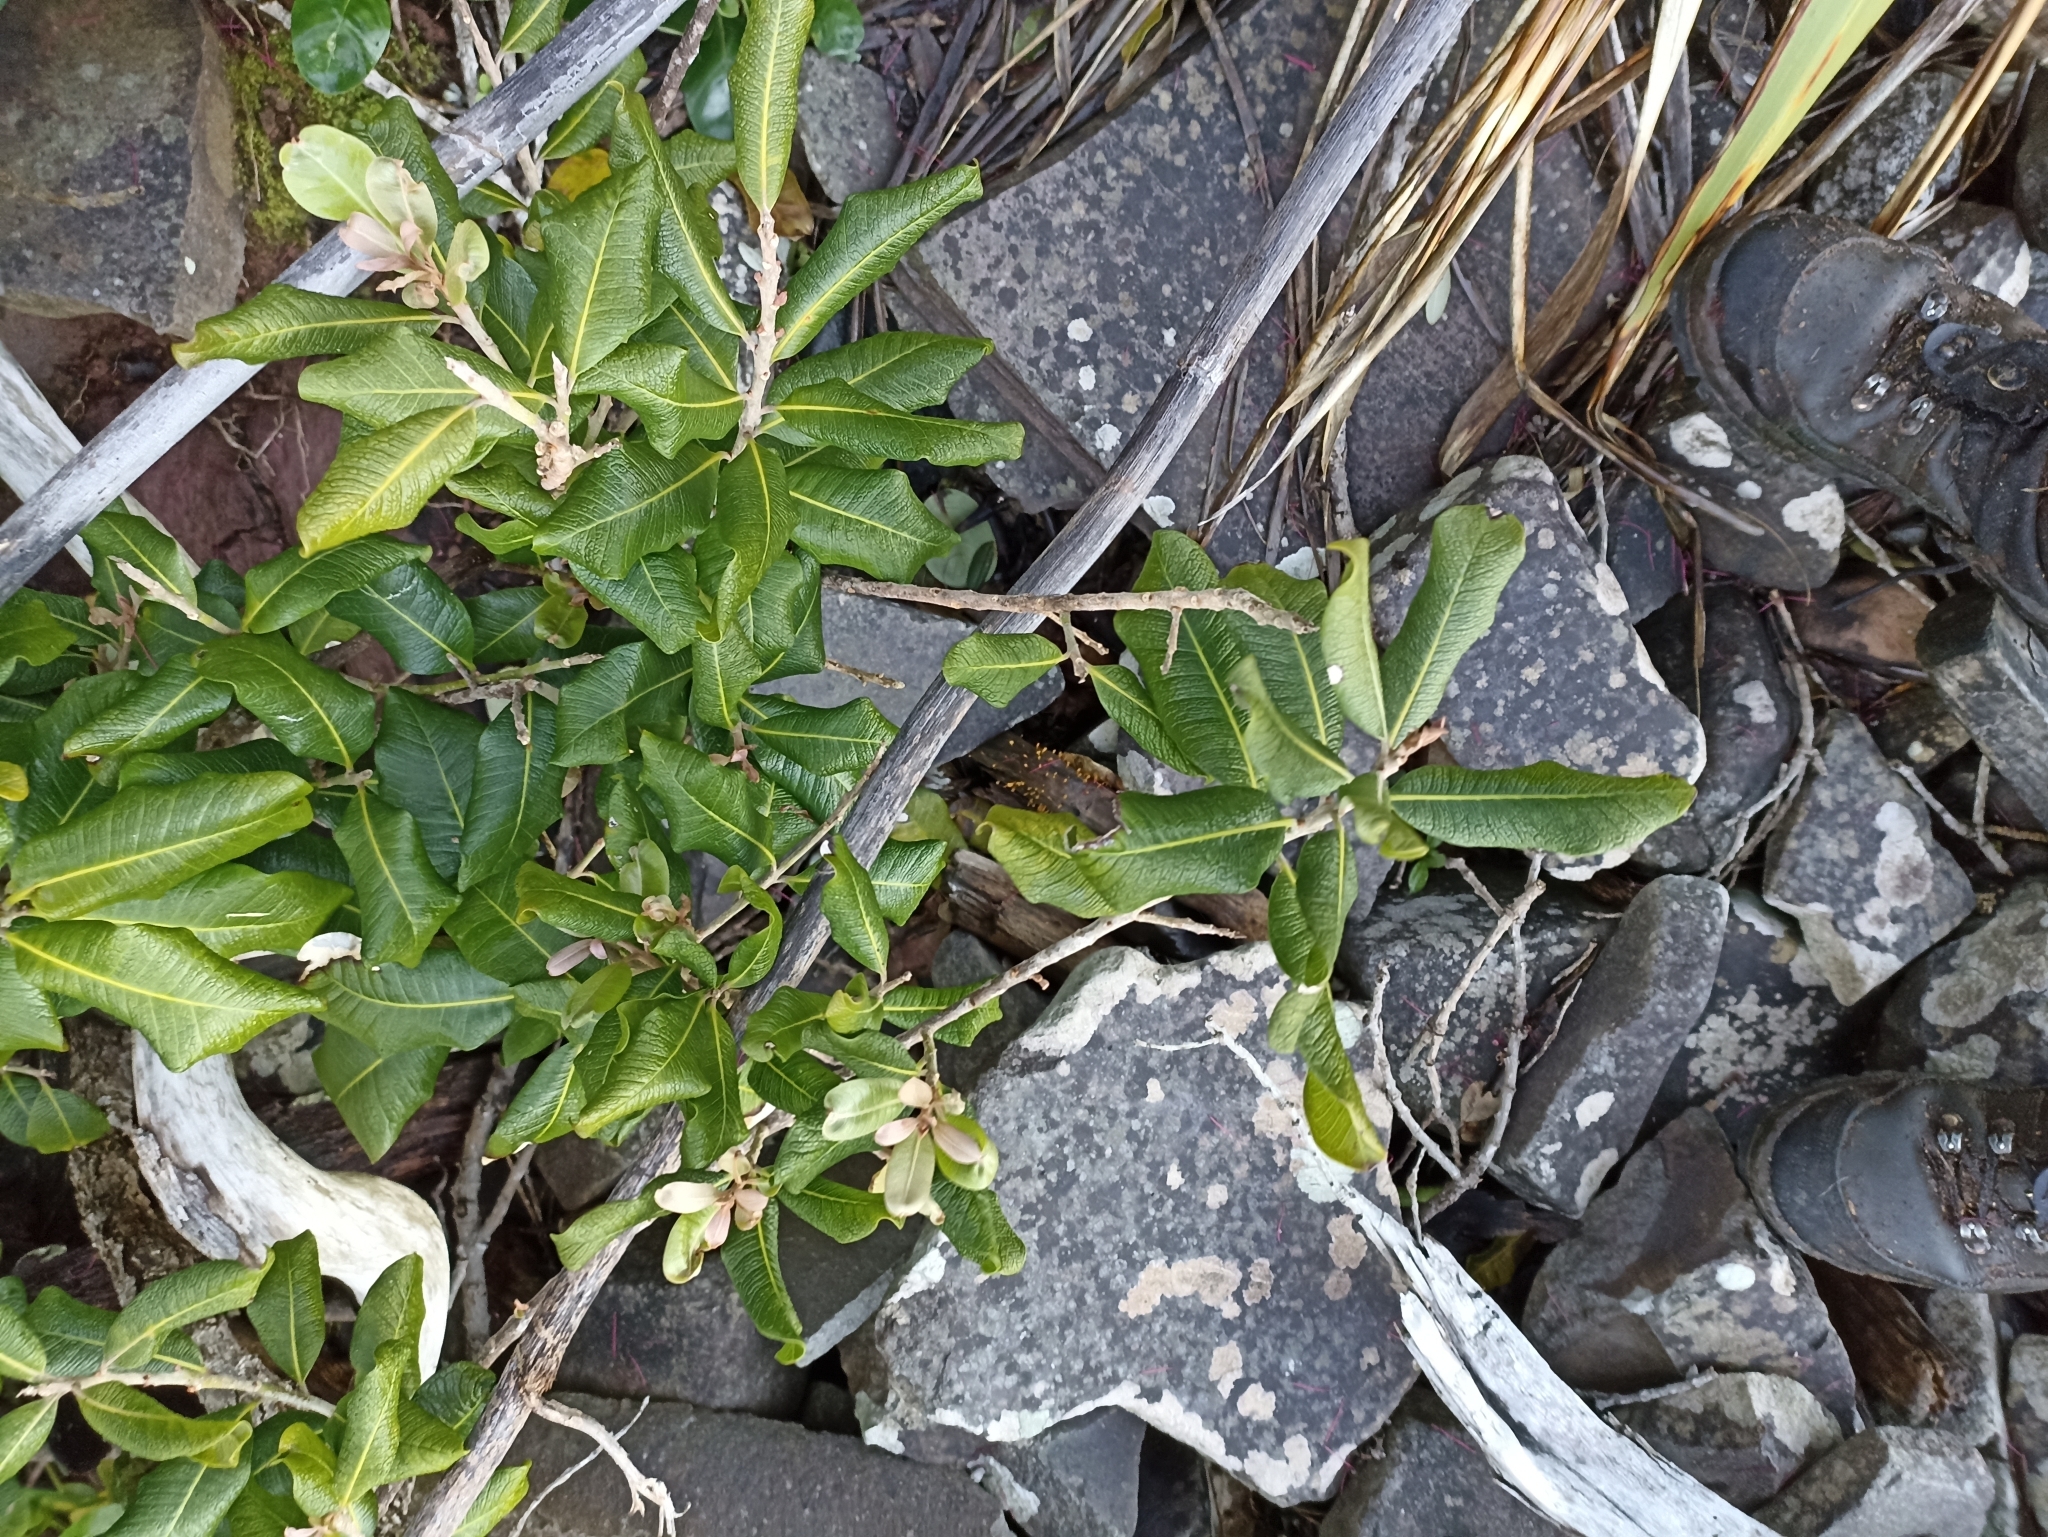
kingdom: Plantae
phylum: Tracheophyta
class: Magnoliopsida
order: Ericales
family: Sapotaceae
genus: Planchonella
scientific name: Planchonella costata
